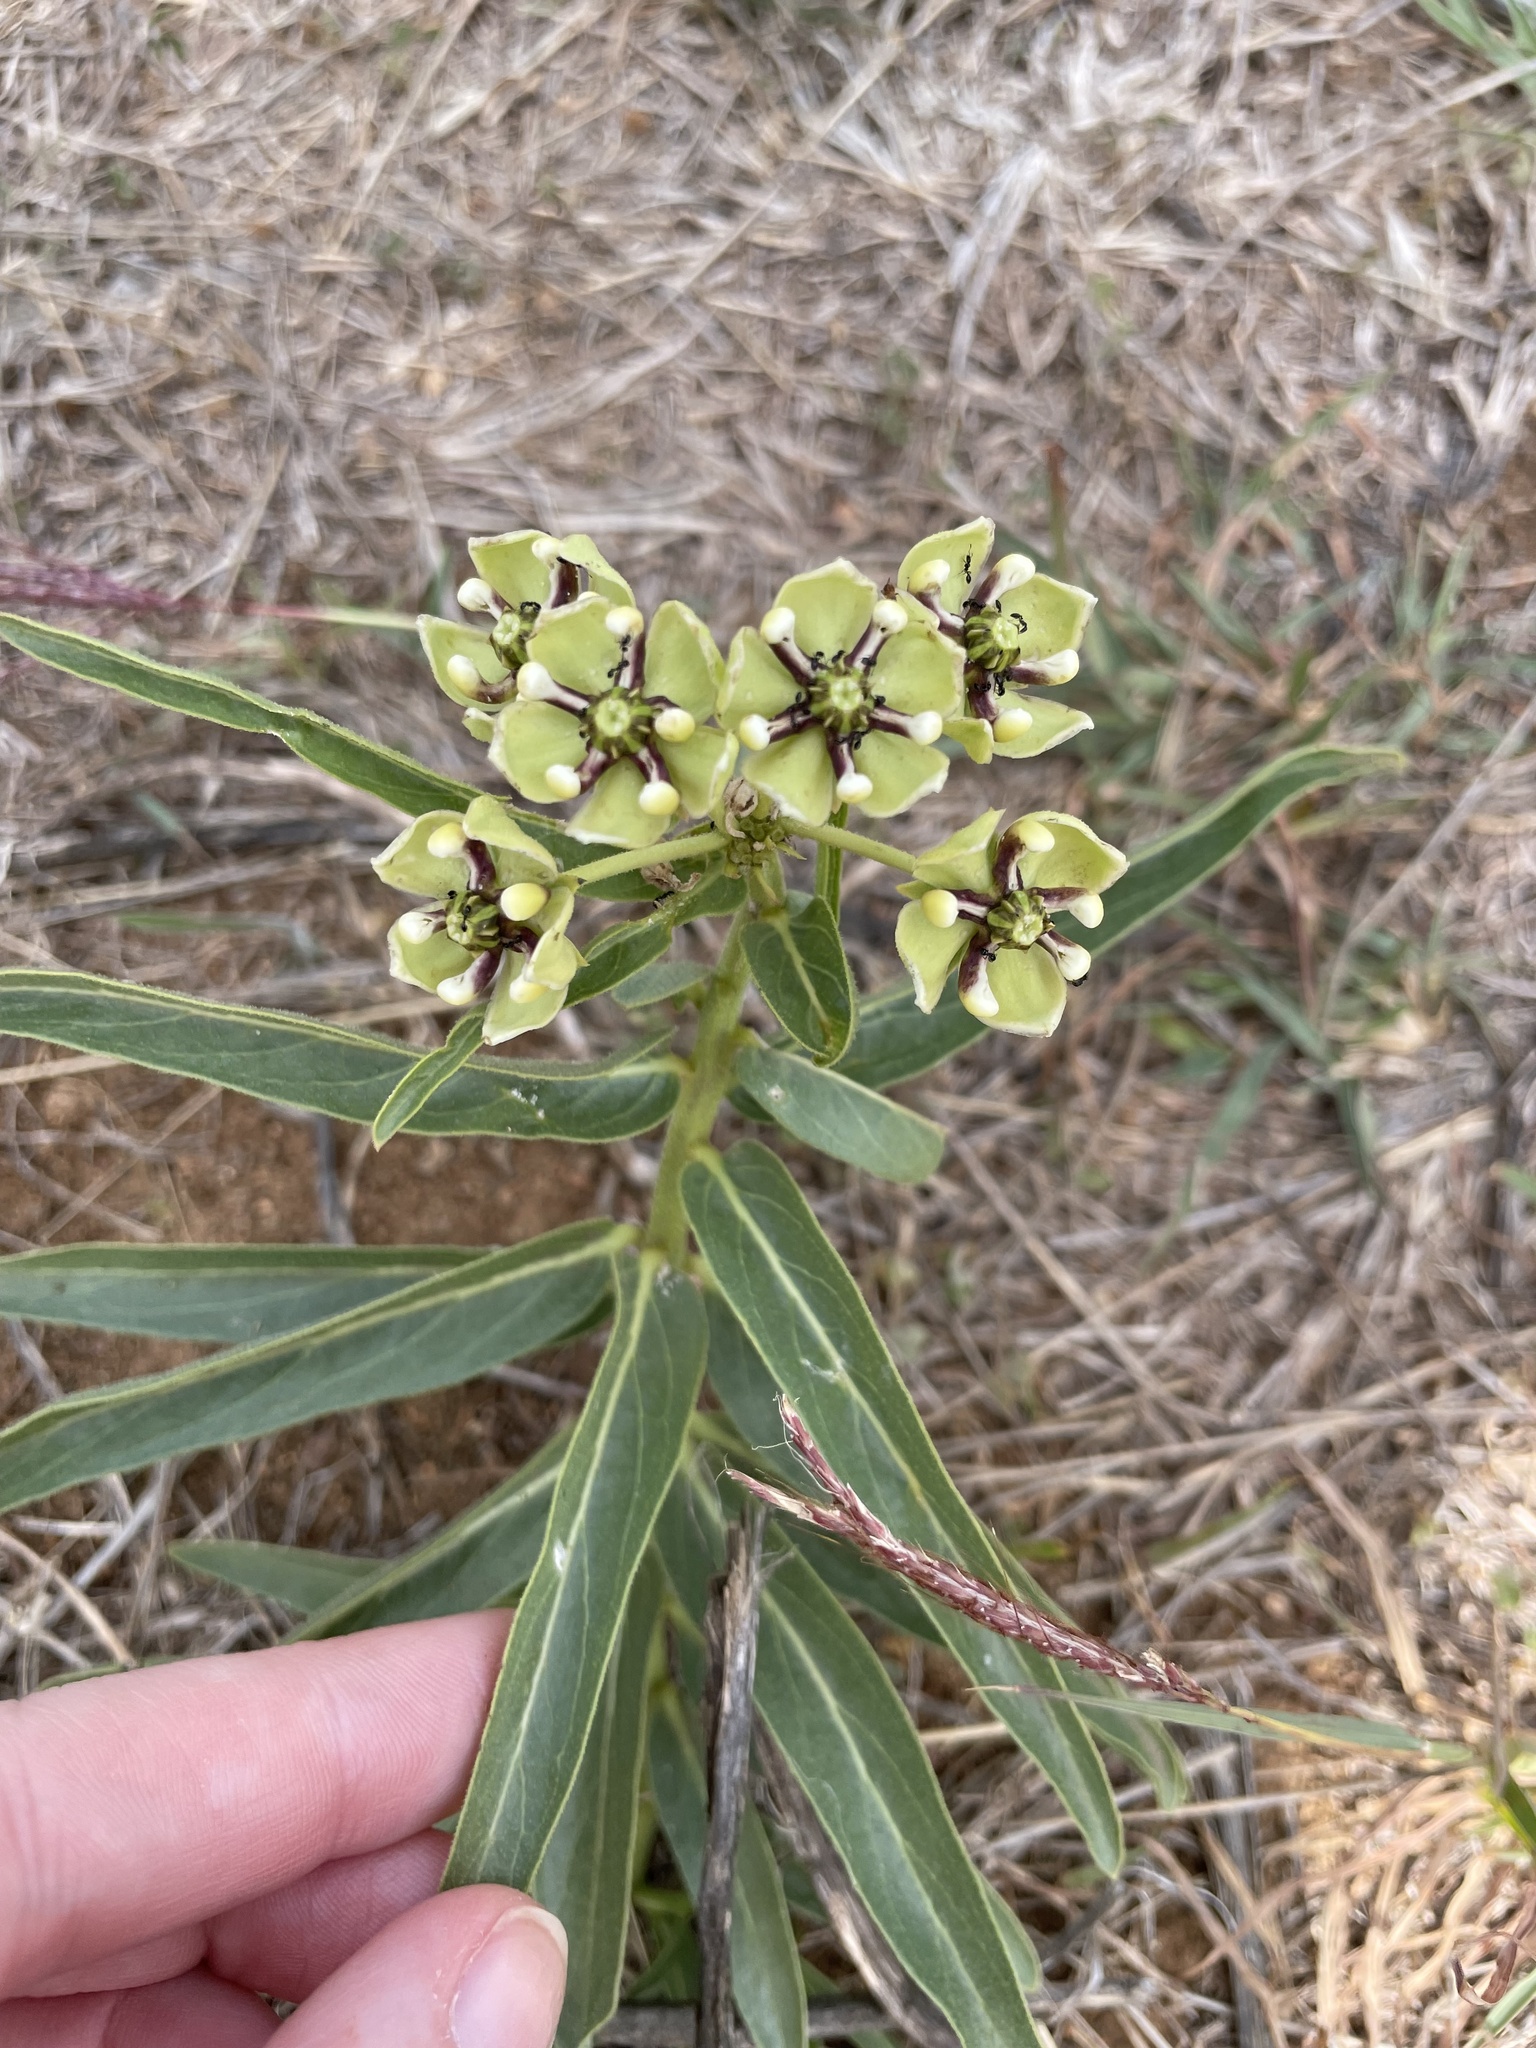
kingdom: Plantae
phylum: Tracheophyta
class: Magnoliopsida
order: Gentianales
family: Apocynaceae
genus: Asclepias
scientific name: Asclepias asperula
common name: Antelope horns
